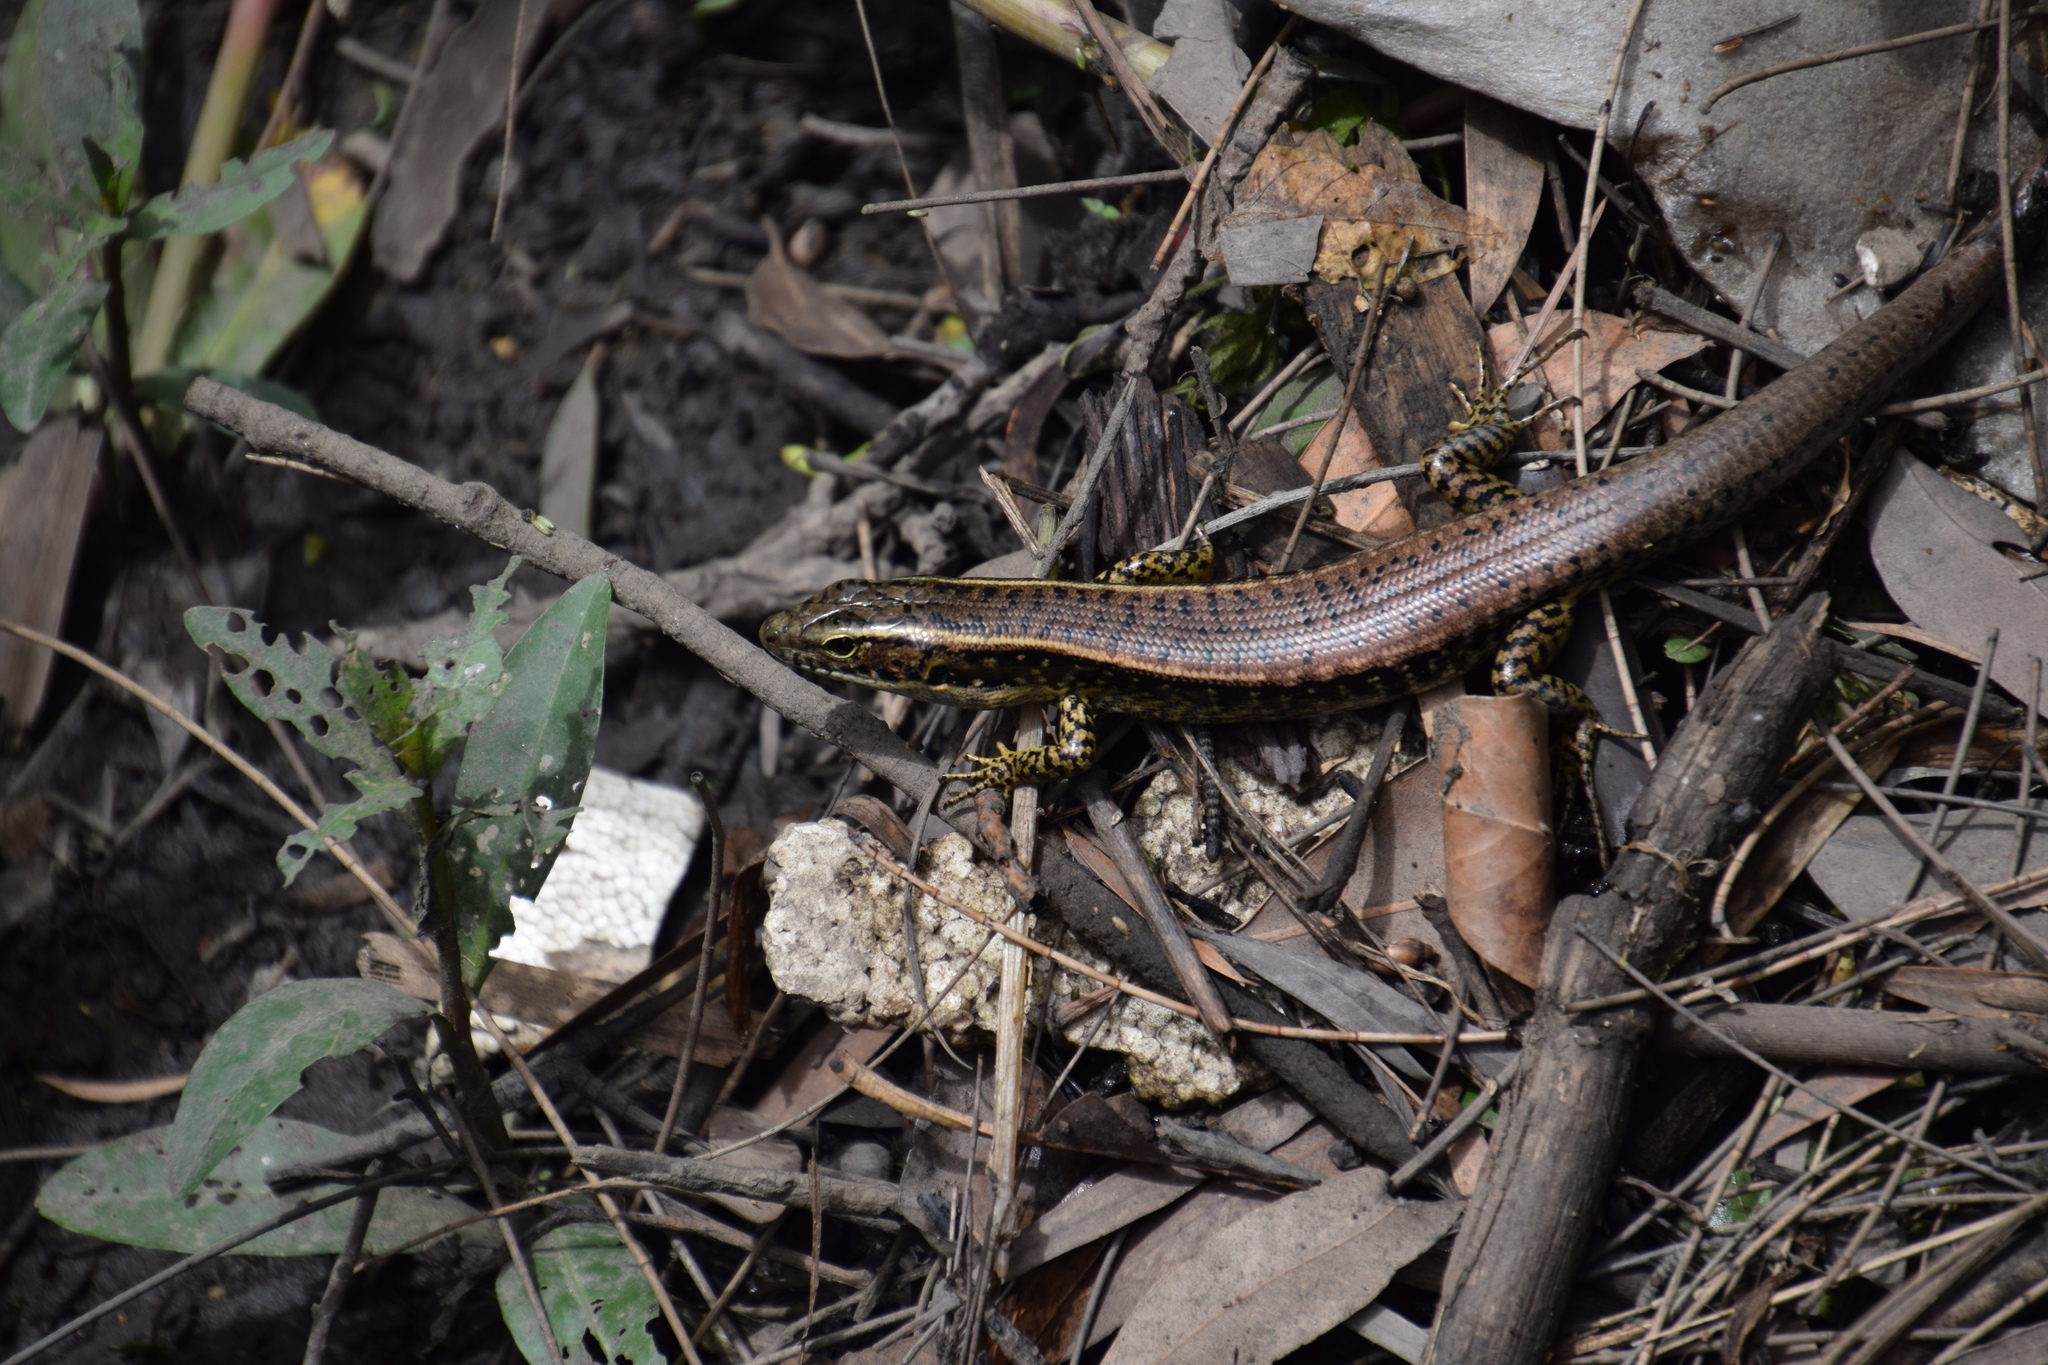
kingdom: Animalia
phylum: Chordata
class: Squamata
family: Scincidae
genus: Eulamprus
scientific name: Eulamprus quoyii
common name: Eastern water skink
